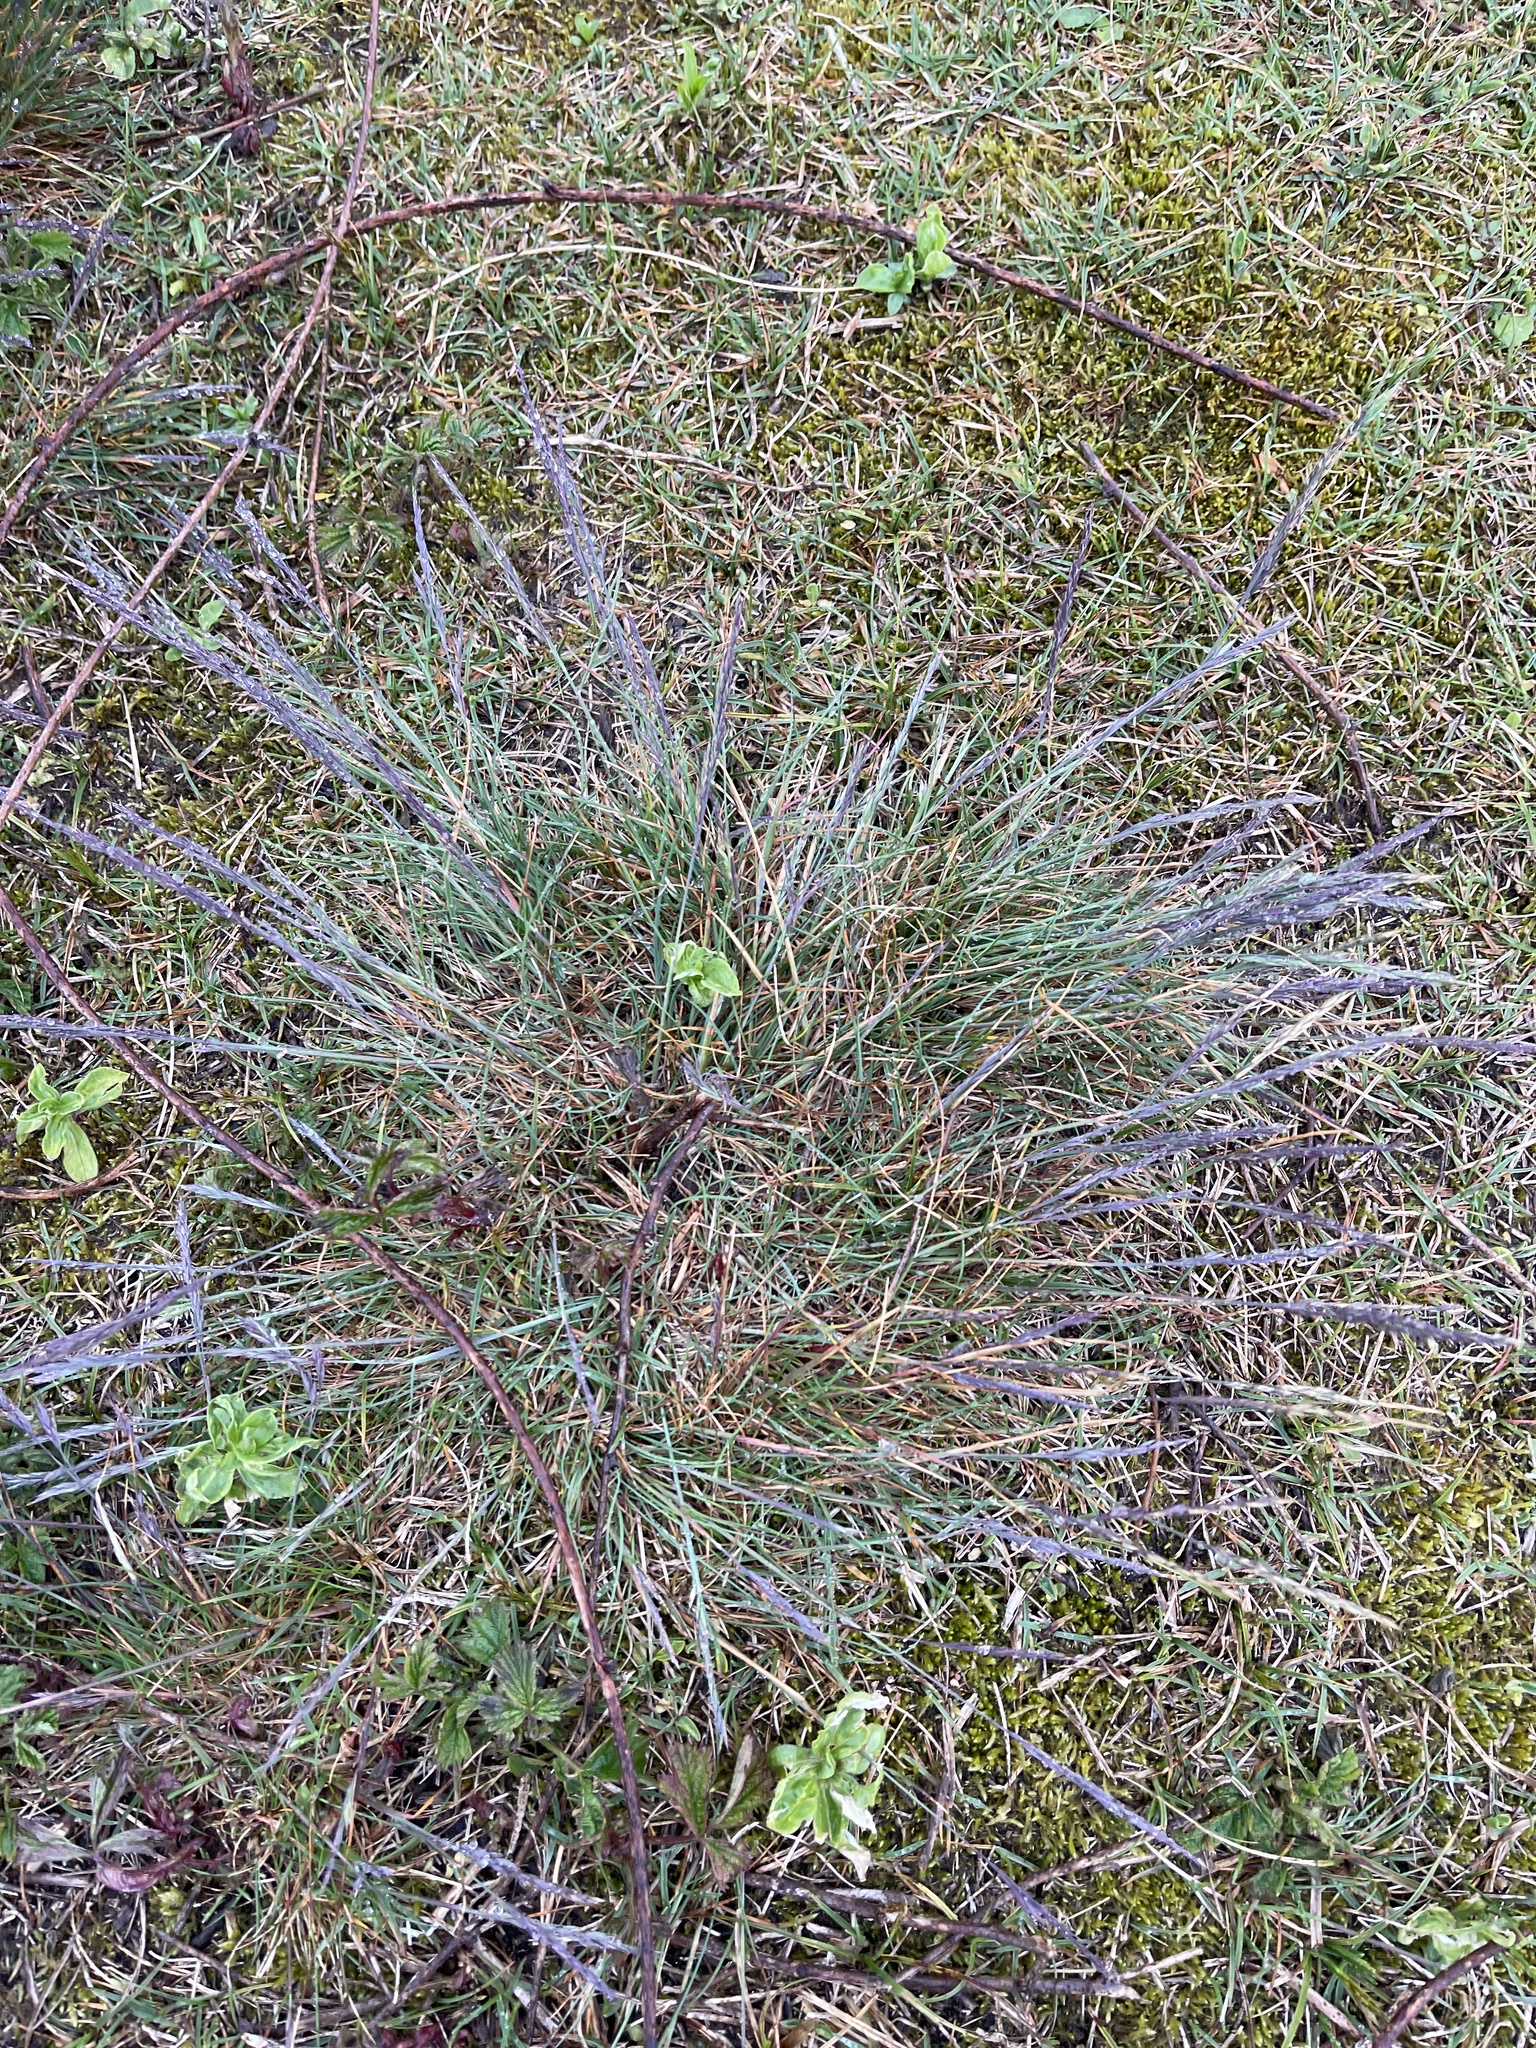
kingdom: Plantae
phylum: Tracheophyta
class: Liliopsida
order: Poales
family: Poaceae
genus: Festuca
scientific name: Festuca rubra
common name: Red fescue
